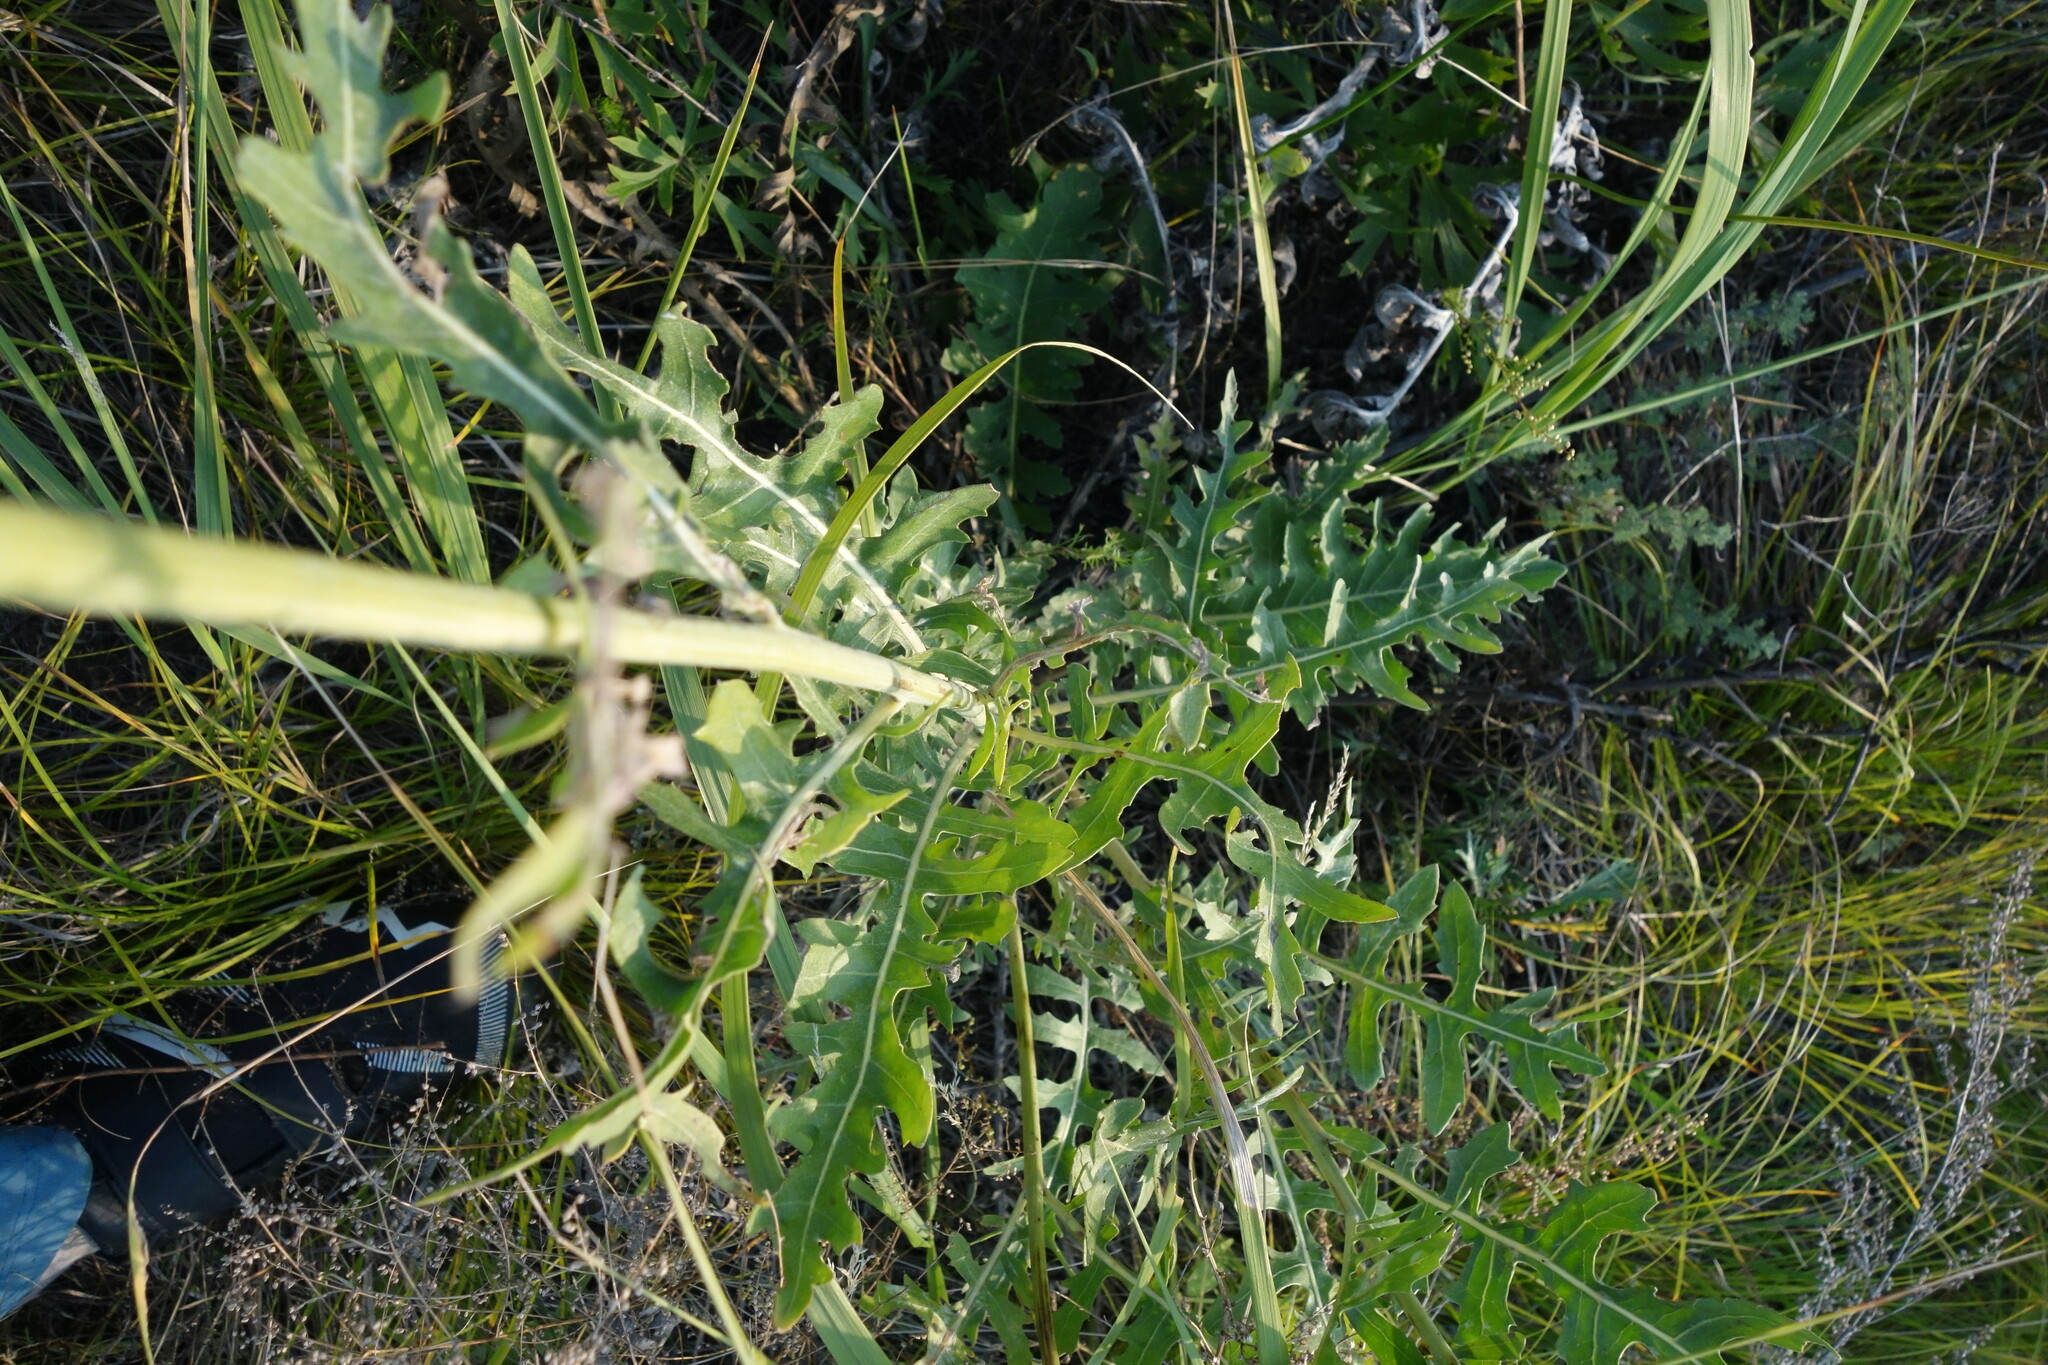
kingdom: Plantae
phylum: Tracheophyta
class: Magnoliopsida
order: Asterales
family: Asteraceae
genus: Leuzea
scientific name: Leuzea uniflora
